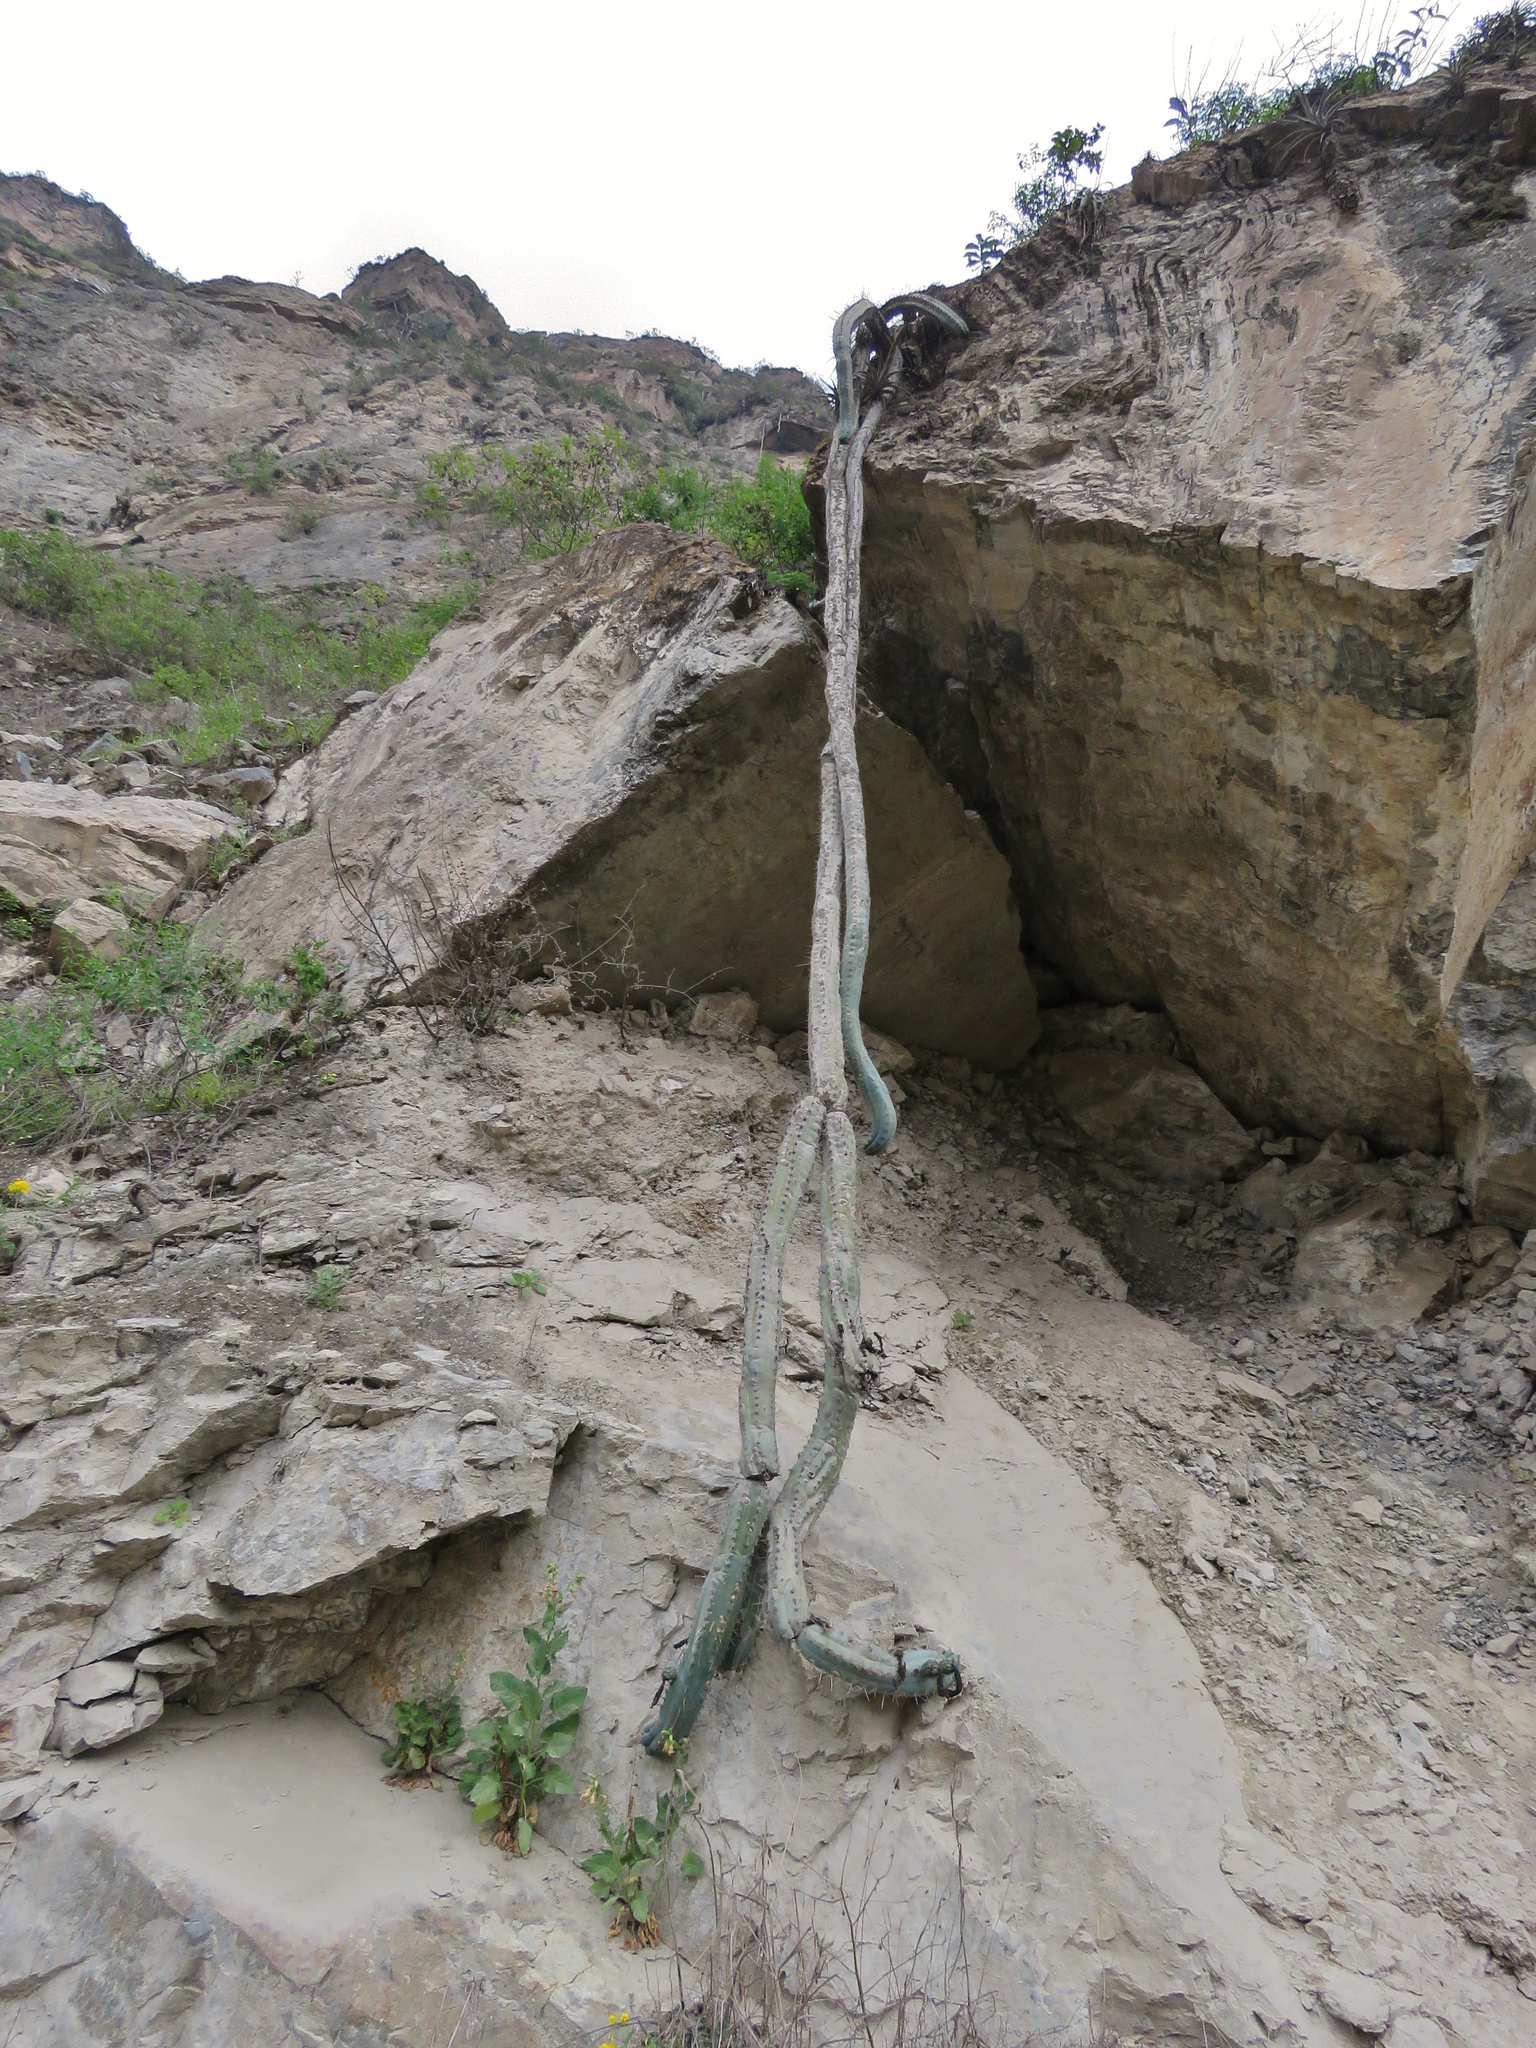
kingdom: Plantae
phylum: Tracheophyta
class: Magnoliopsida
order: Caryophyllales
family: Cactaceae
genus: Trichocereus
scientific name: Trichocereus macrogonus
